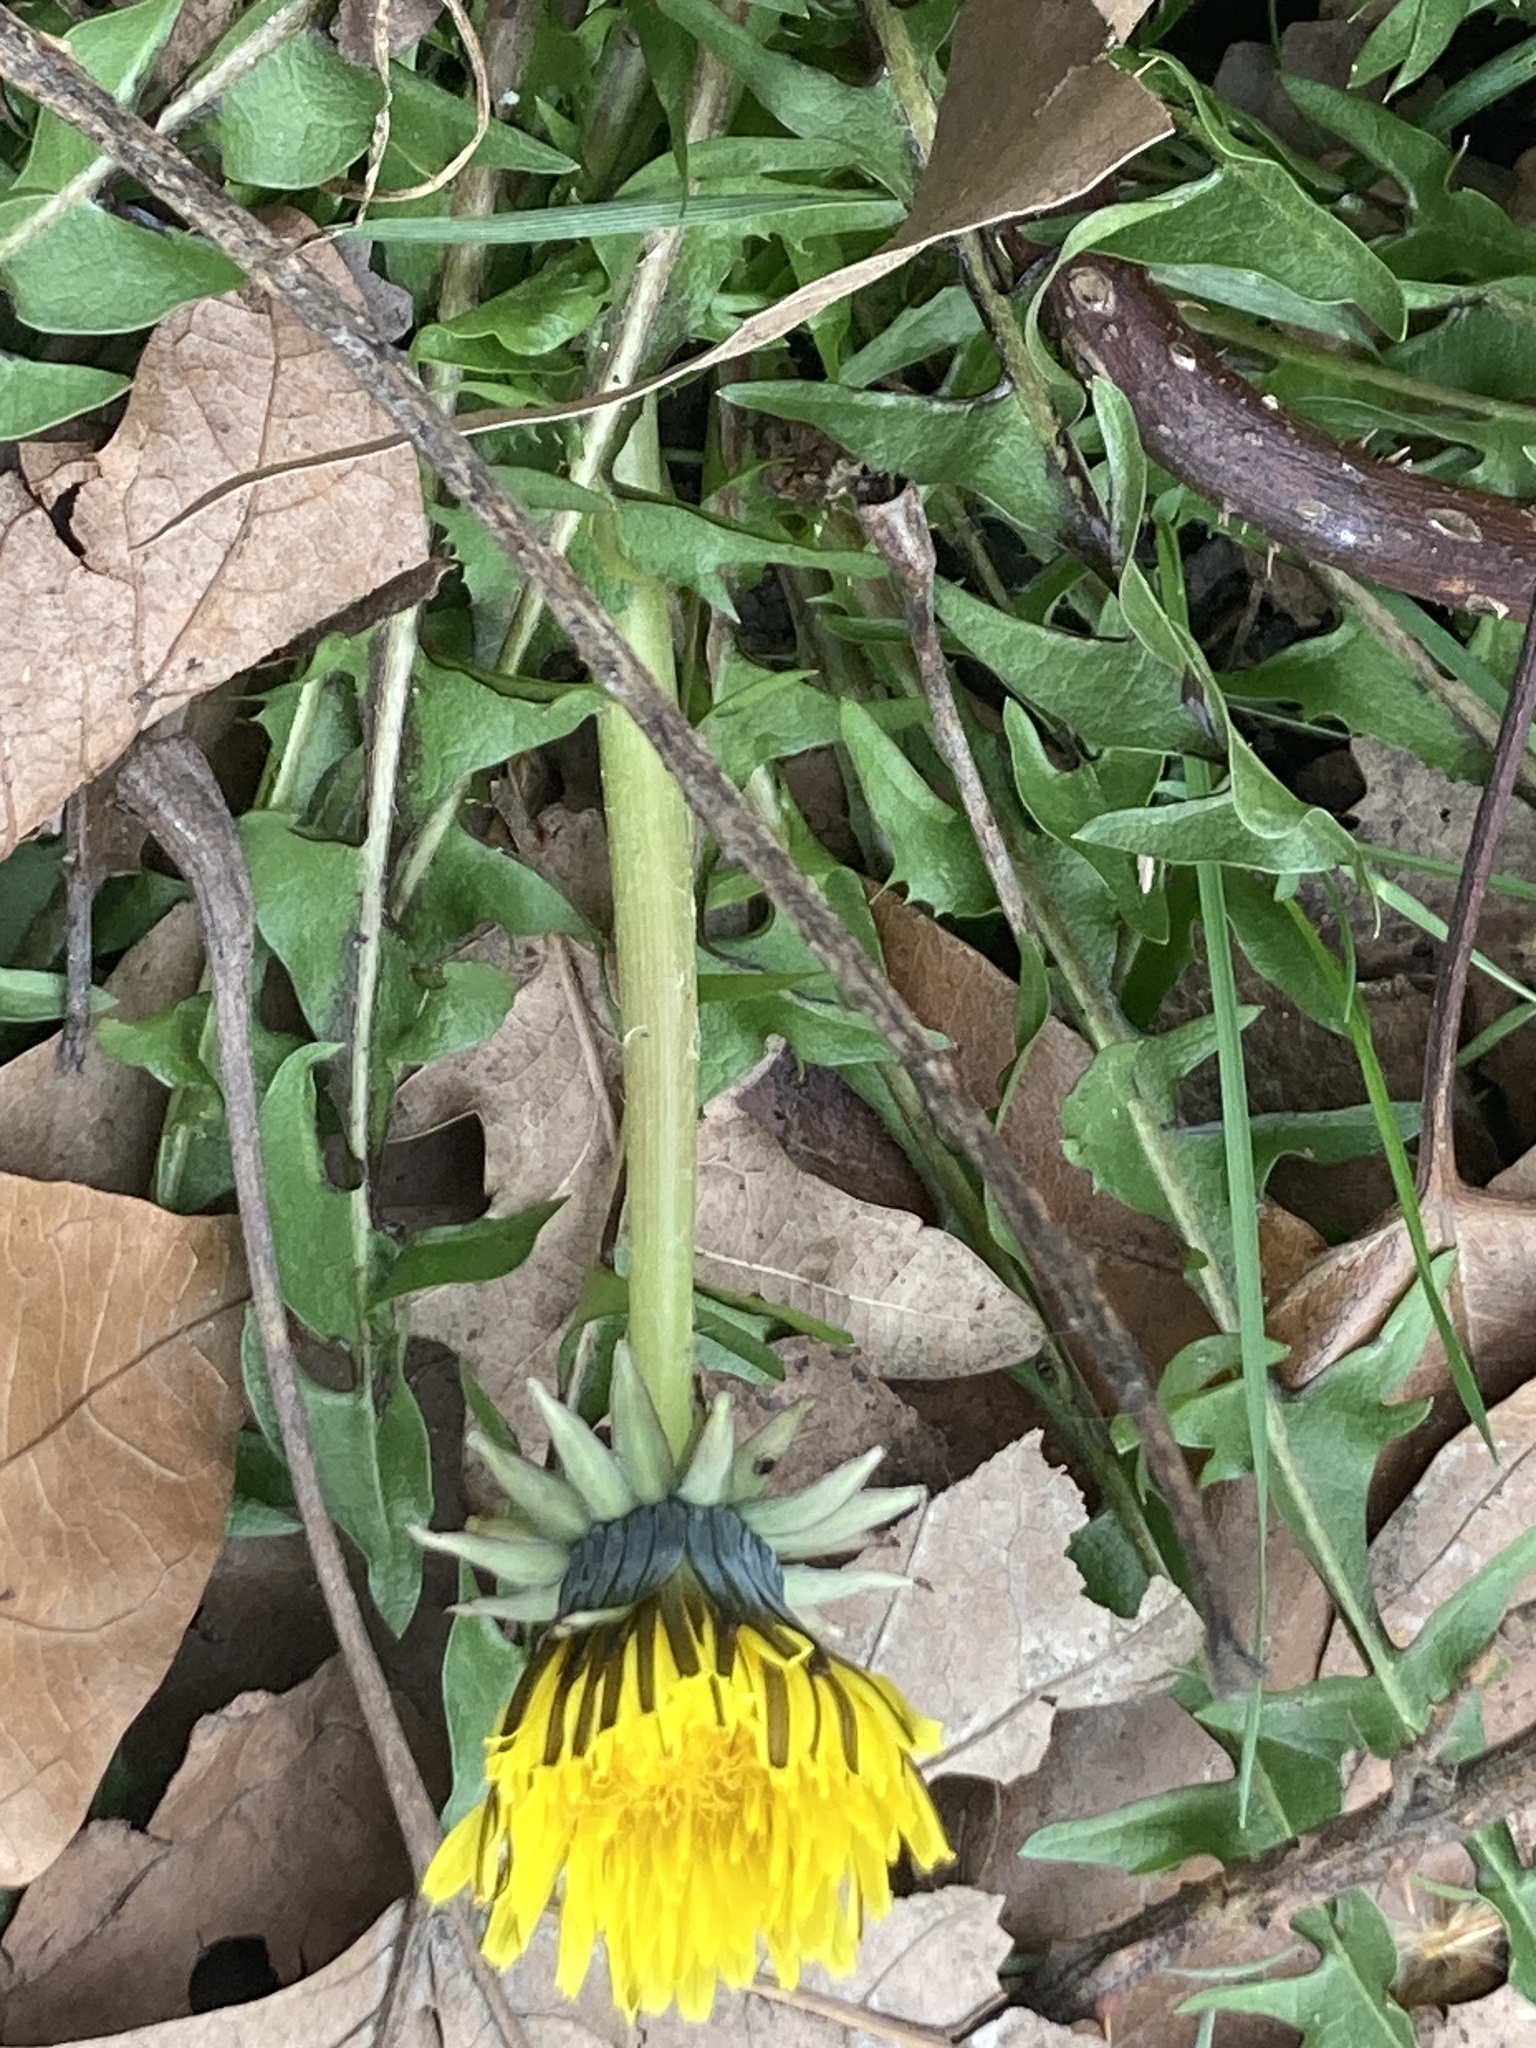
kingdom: Plantae
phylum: Tracheophyta
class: Magnoliopsida
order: Asterales
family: Asteraceae
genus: Taraxacum
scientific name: Taraxacum officinale
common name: Common dandelion
